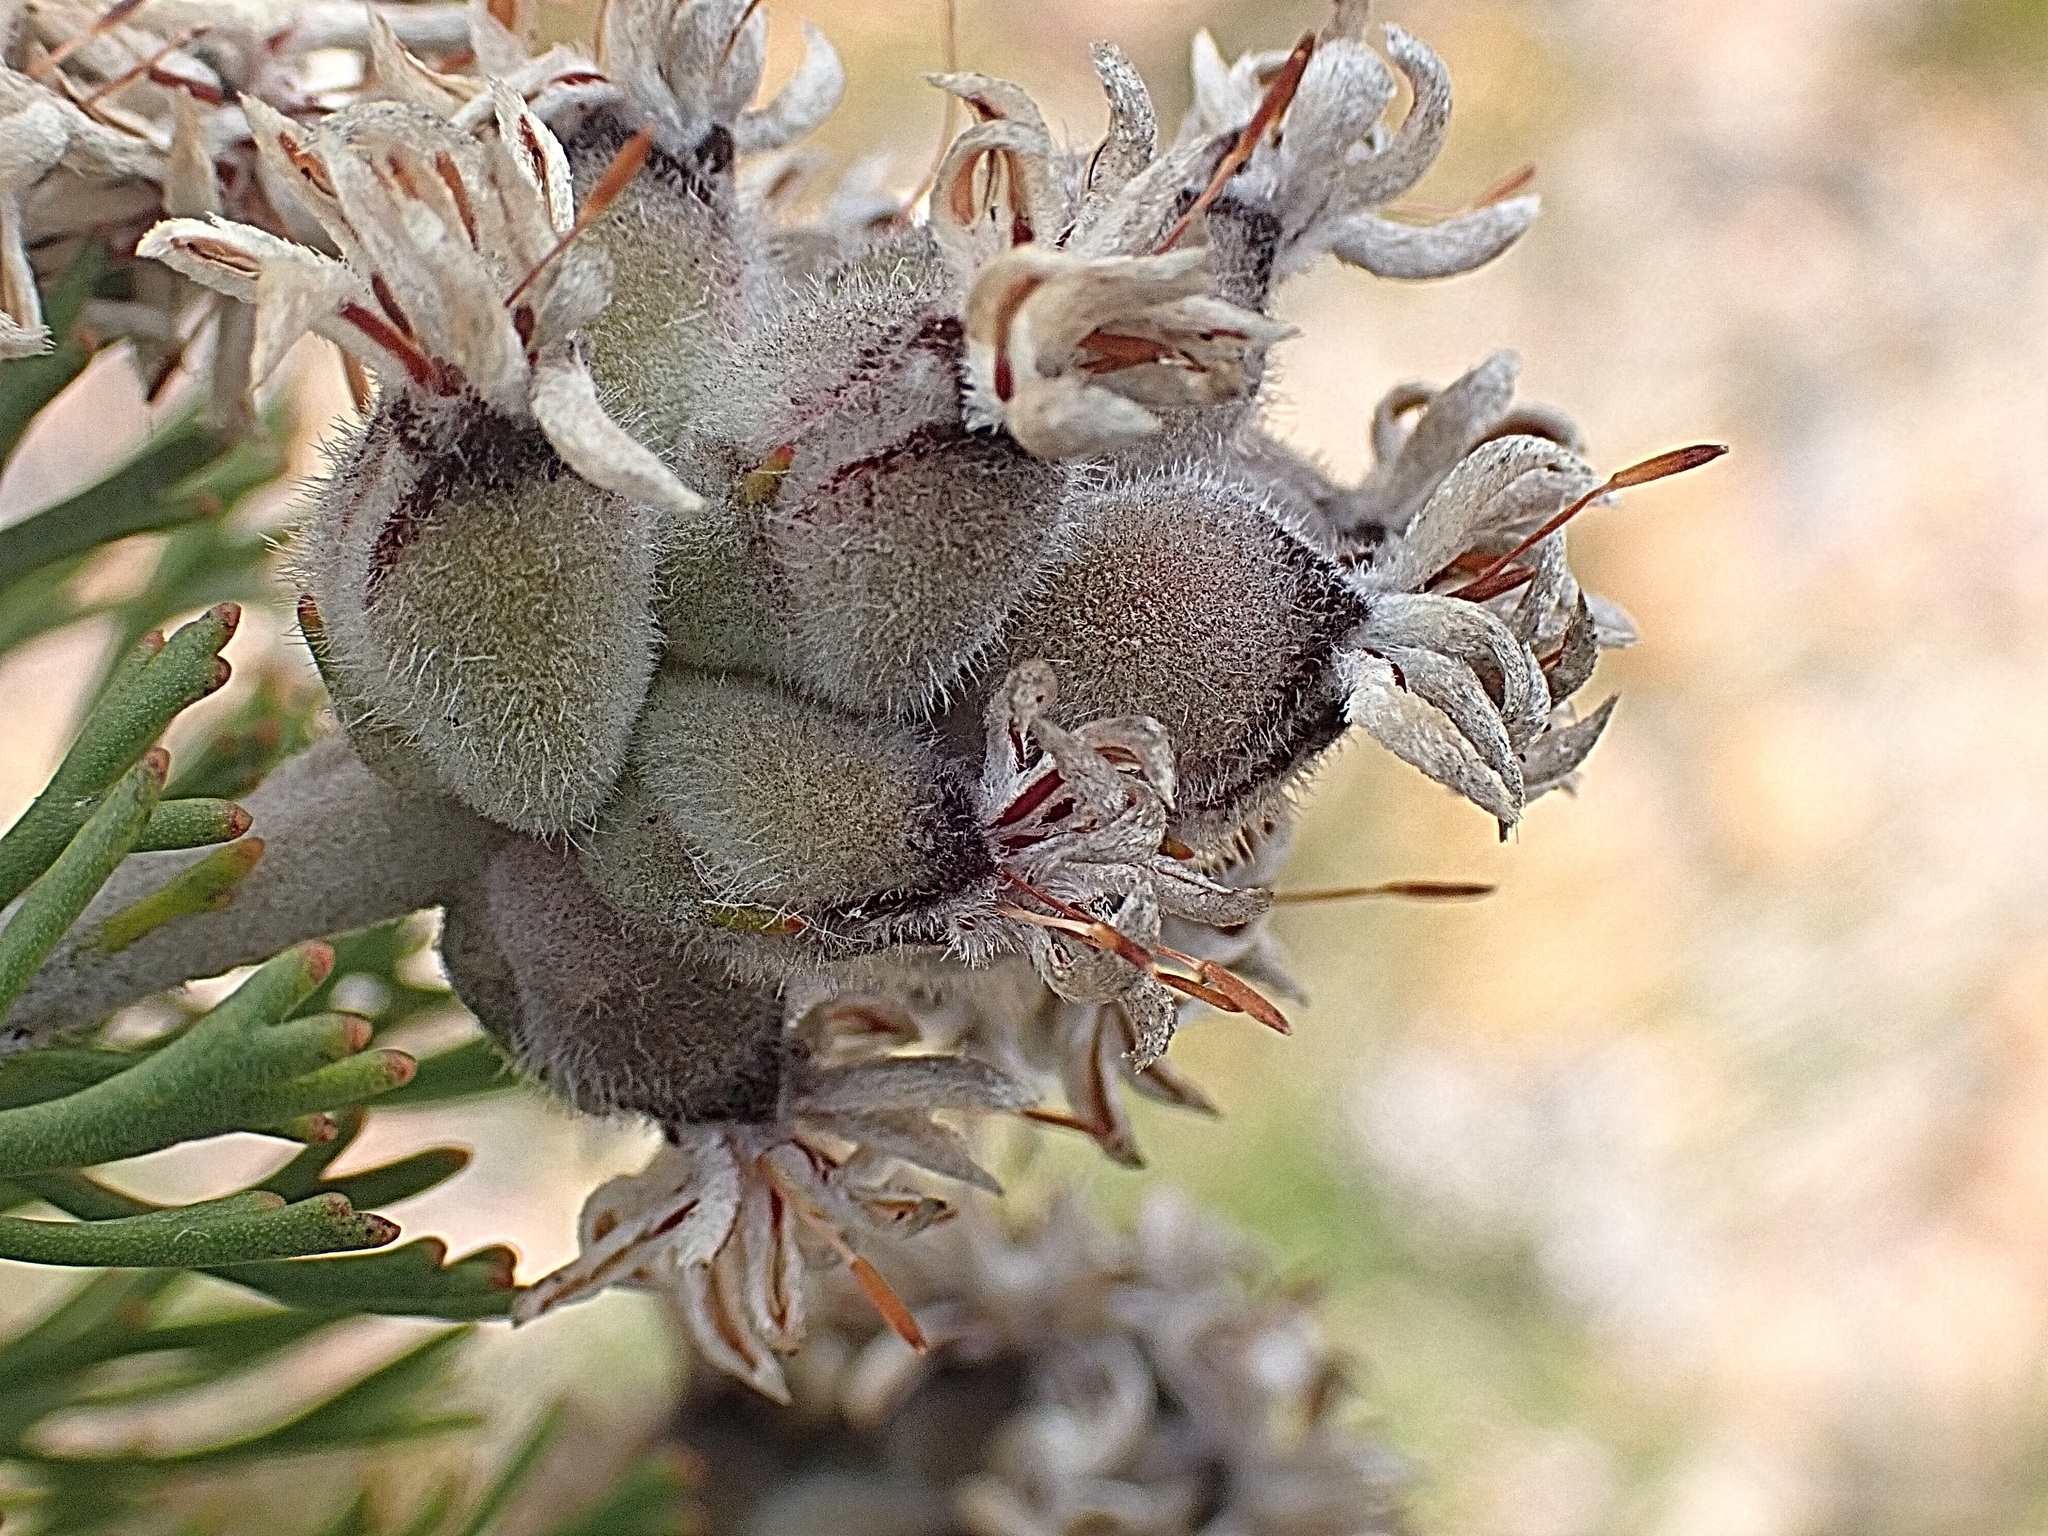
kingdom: Plantae
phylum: Tracheophyta
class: Magnoliopsida
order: Proteales
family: Proteaceae
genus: Paranomus
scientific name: Paranomus dregei
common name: Scented sceptre
